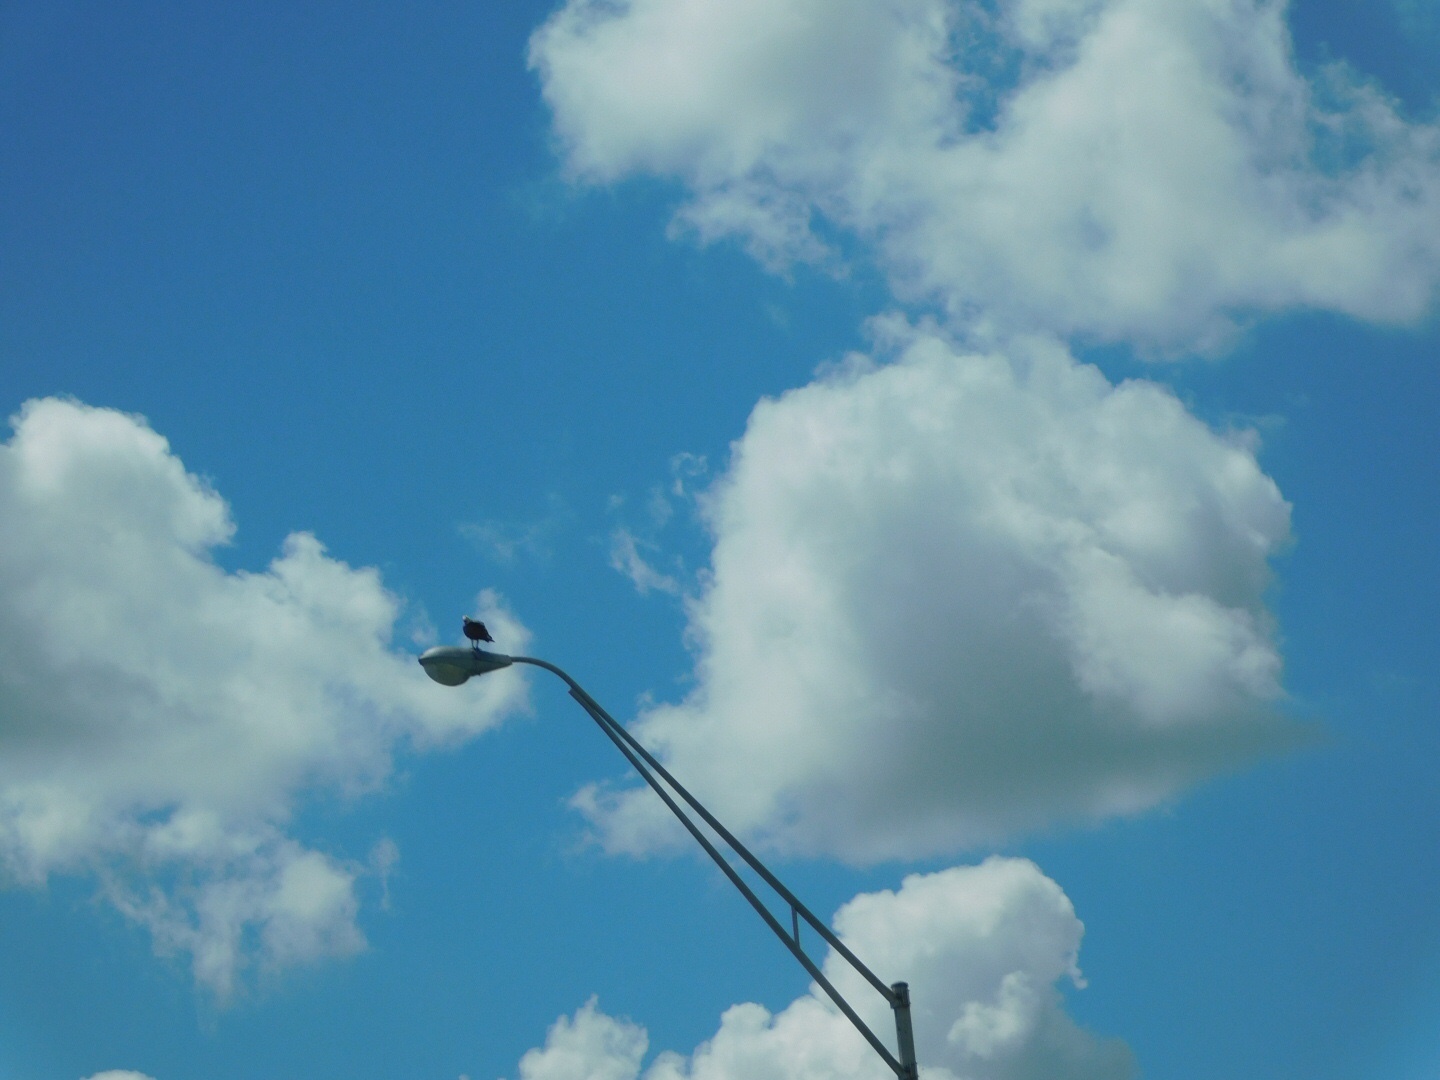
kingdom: Animalia
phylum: Chordata
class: Aves
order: Accipitriformes
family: Pandionidae
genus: Pandion
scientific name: Pandion haliaetus
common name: Osprey
